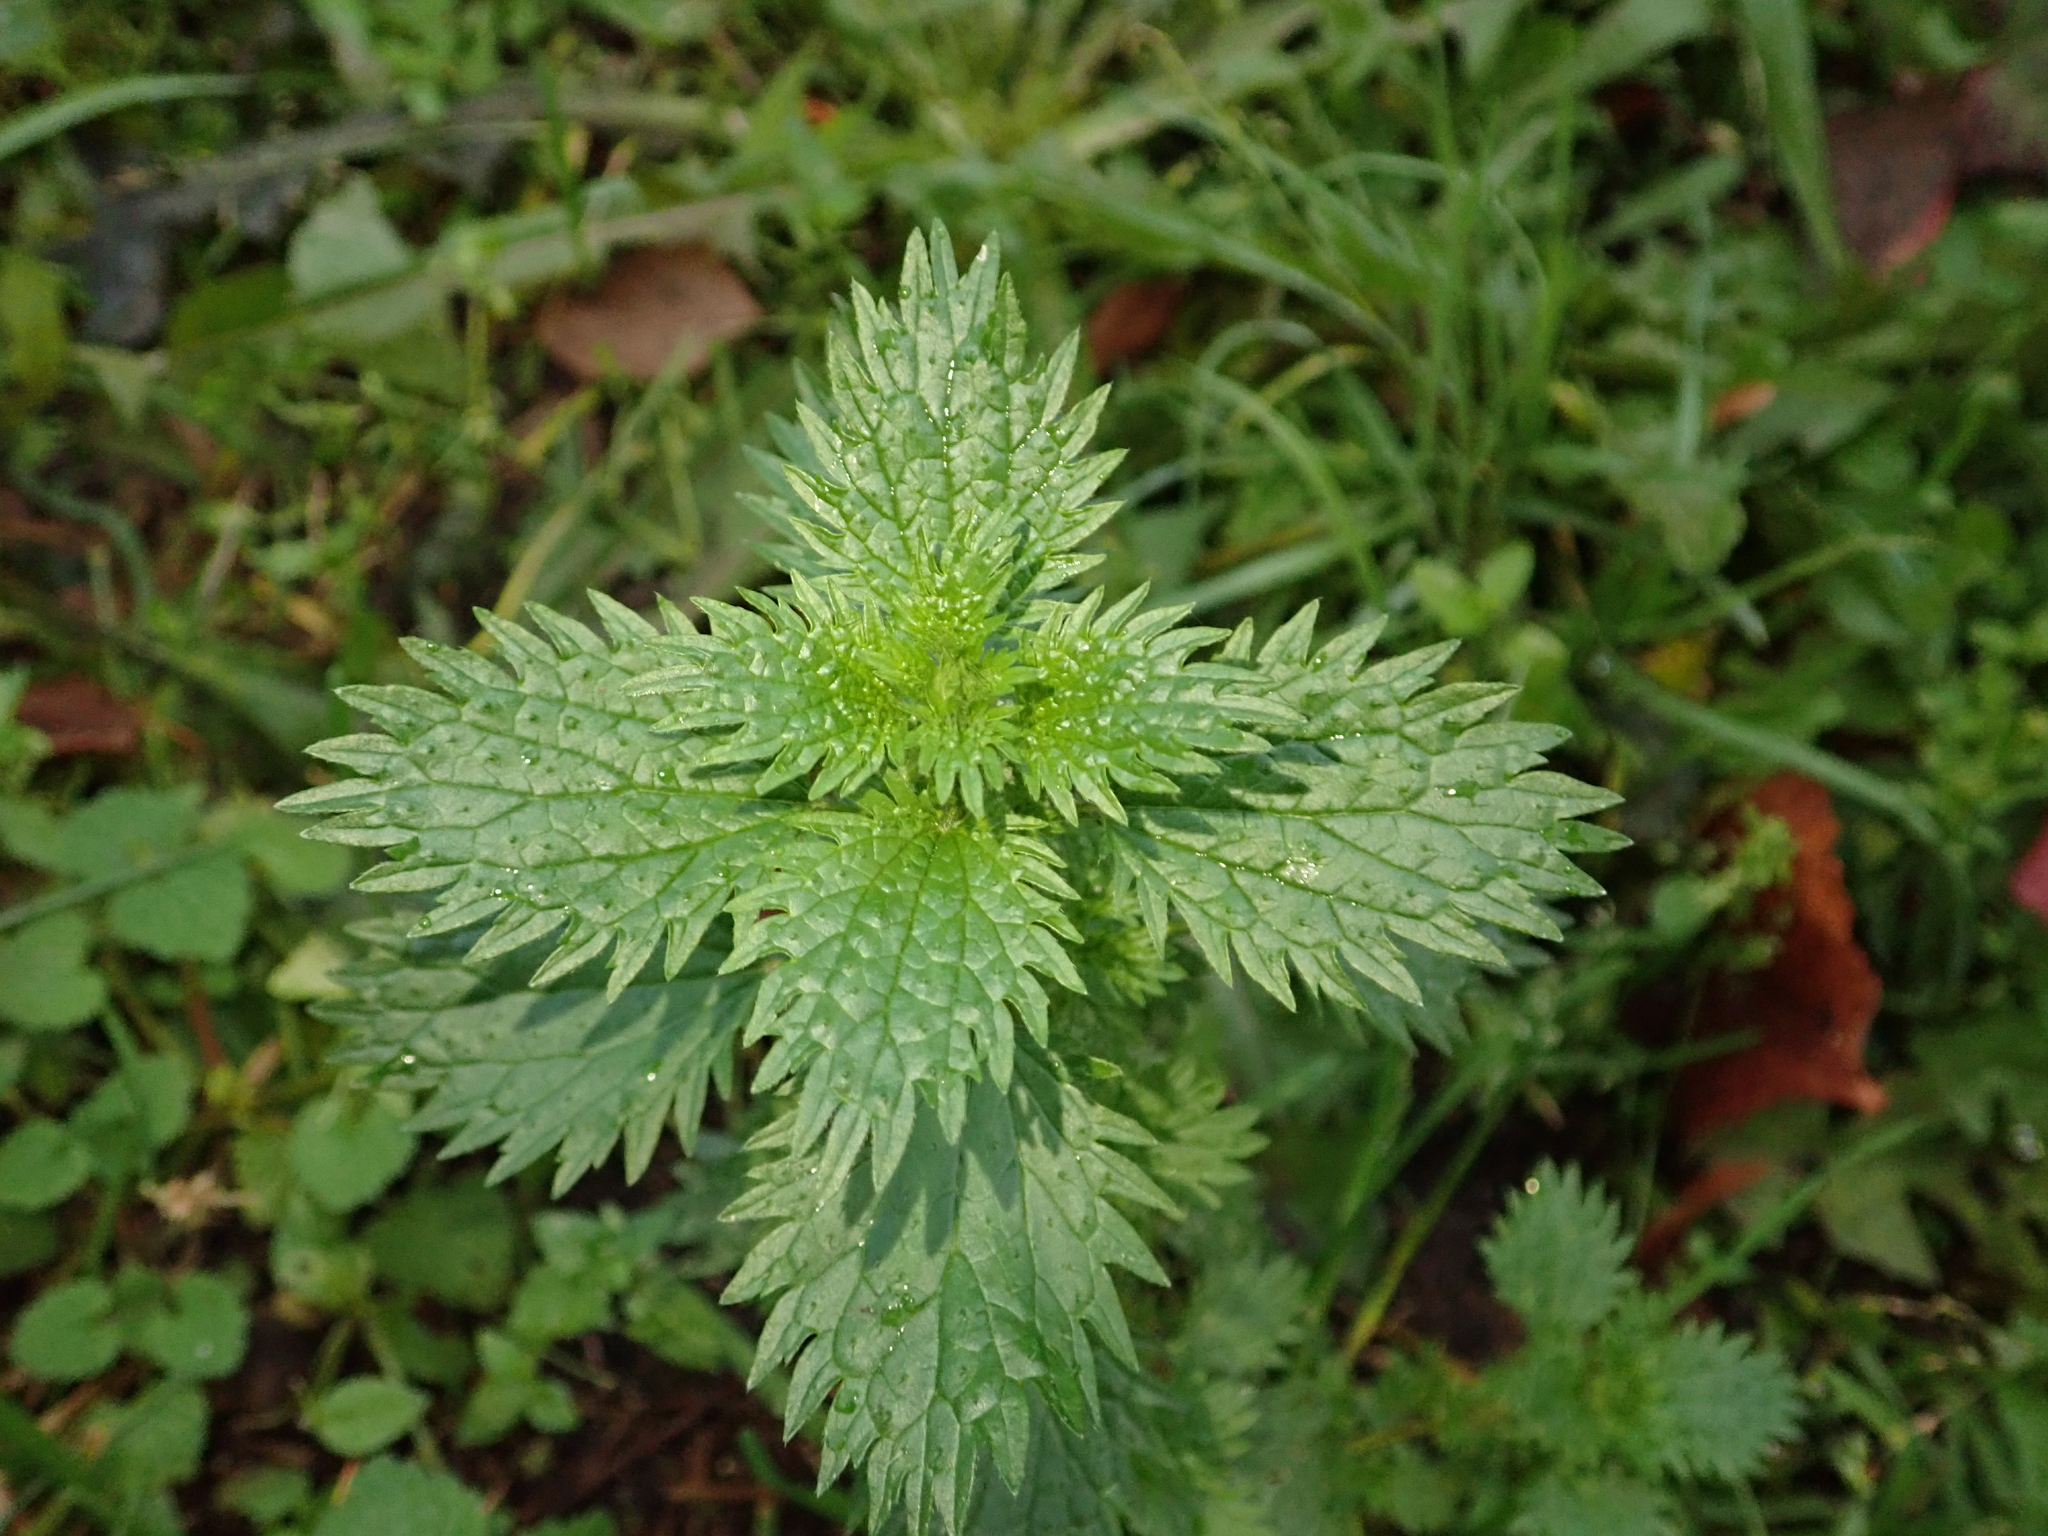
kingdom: Plantae
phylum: Tracheophyta
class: Magnoliopsida
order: Rosales
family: Urticaceae
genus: Urtica
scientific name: Urtica urens
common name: Dwarf nettle
